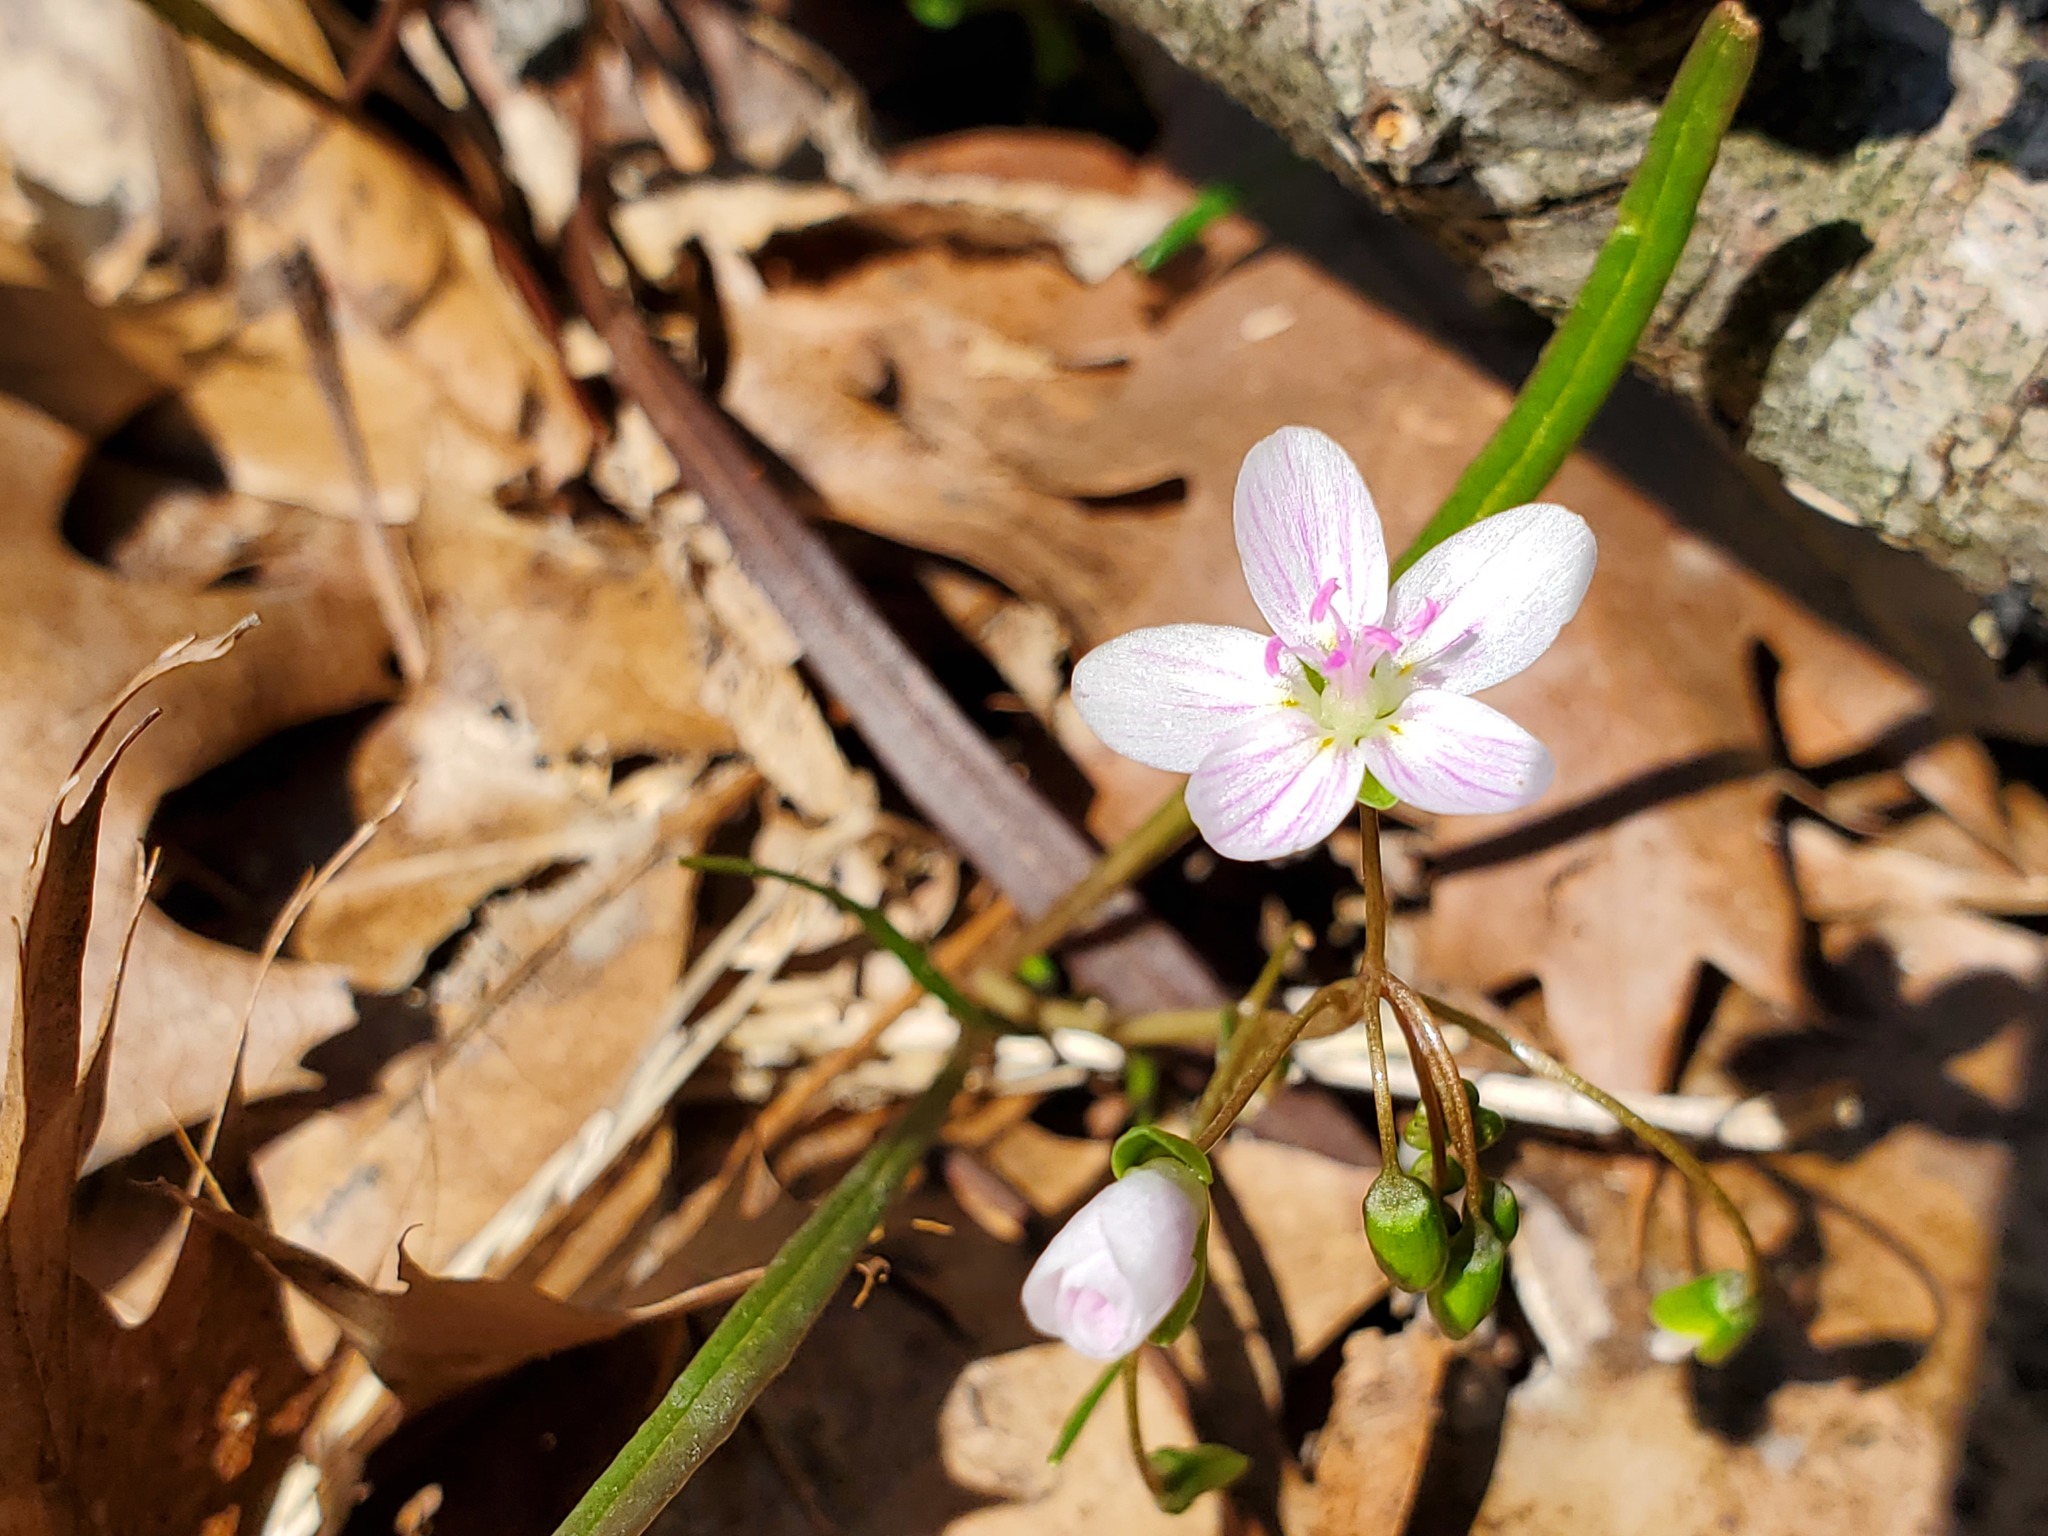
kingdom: Plantae
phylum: Tracheophyta
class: Magnoliopsida
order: Caryophyllales
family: Montiaceae
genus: Claytonia
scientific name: Claytonia virginica
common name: Virginia springbeauty
